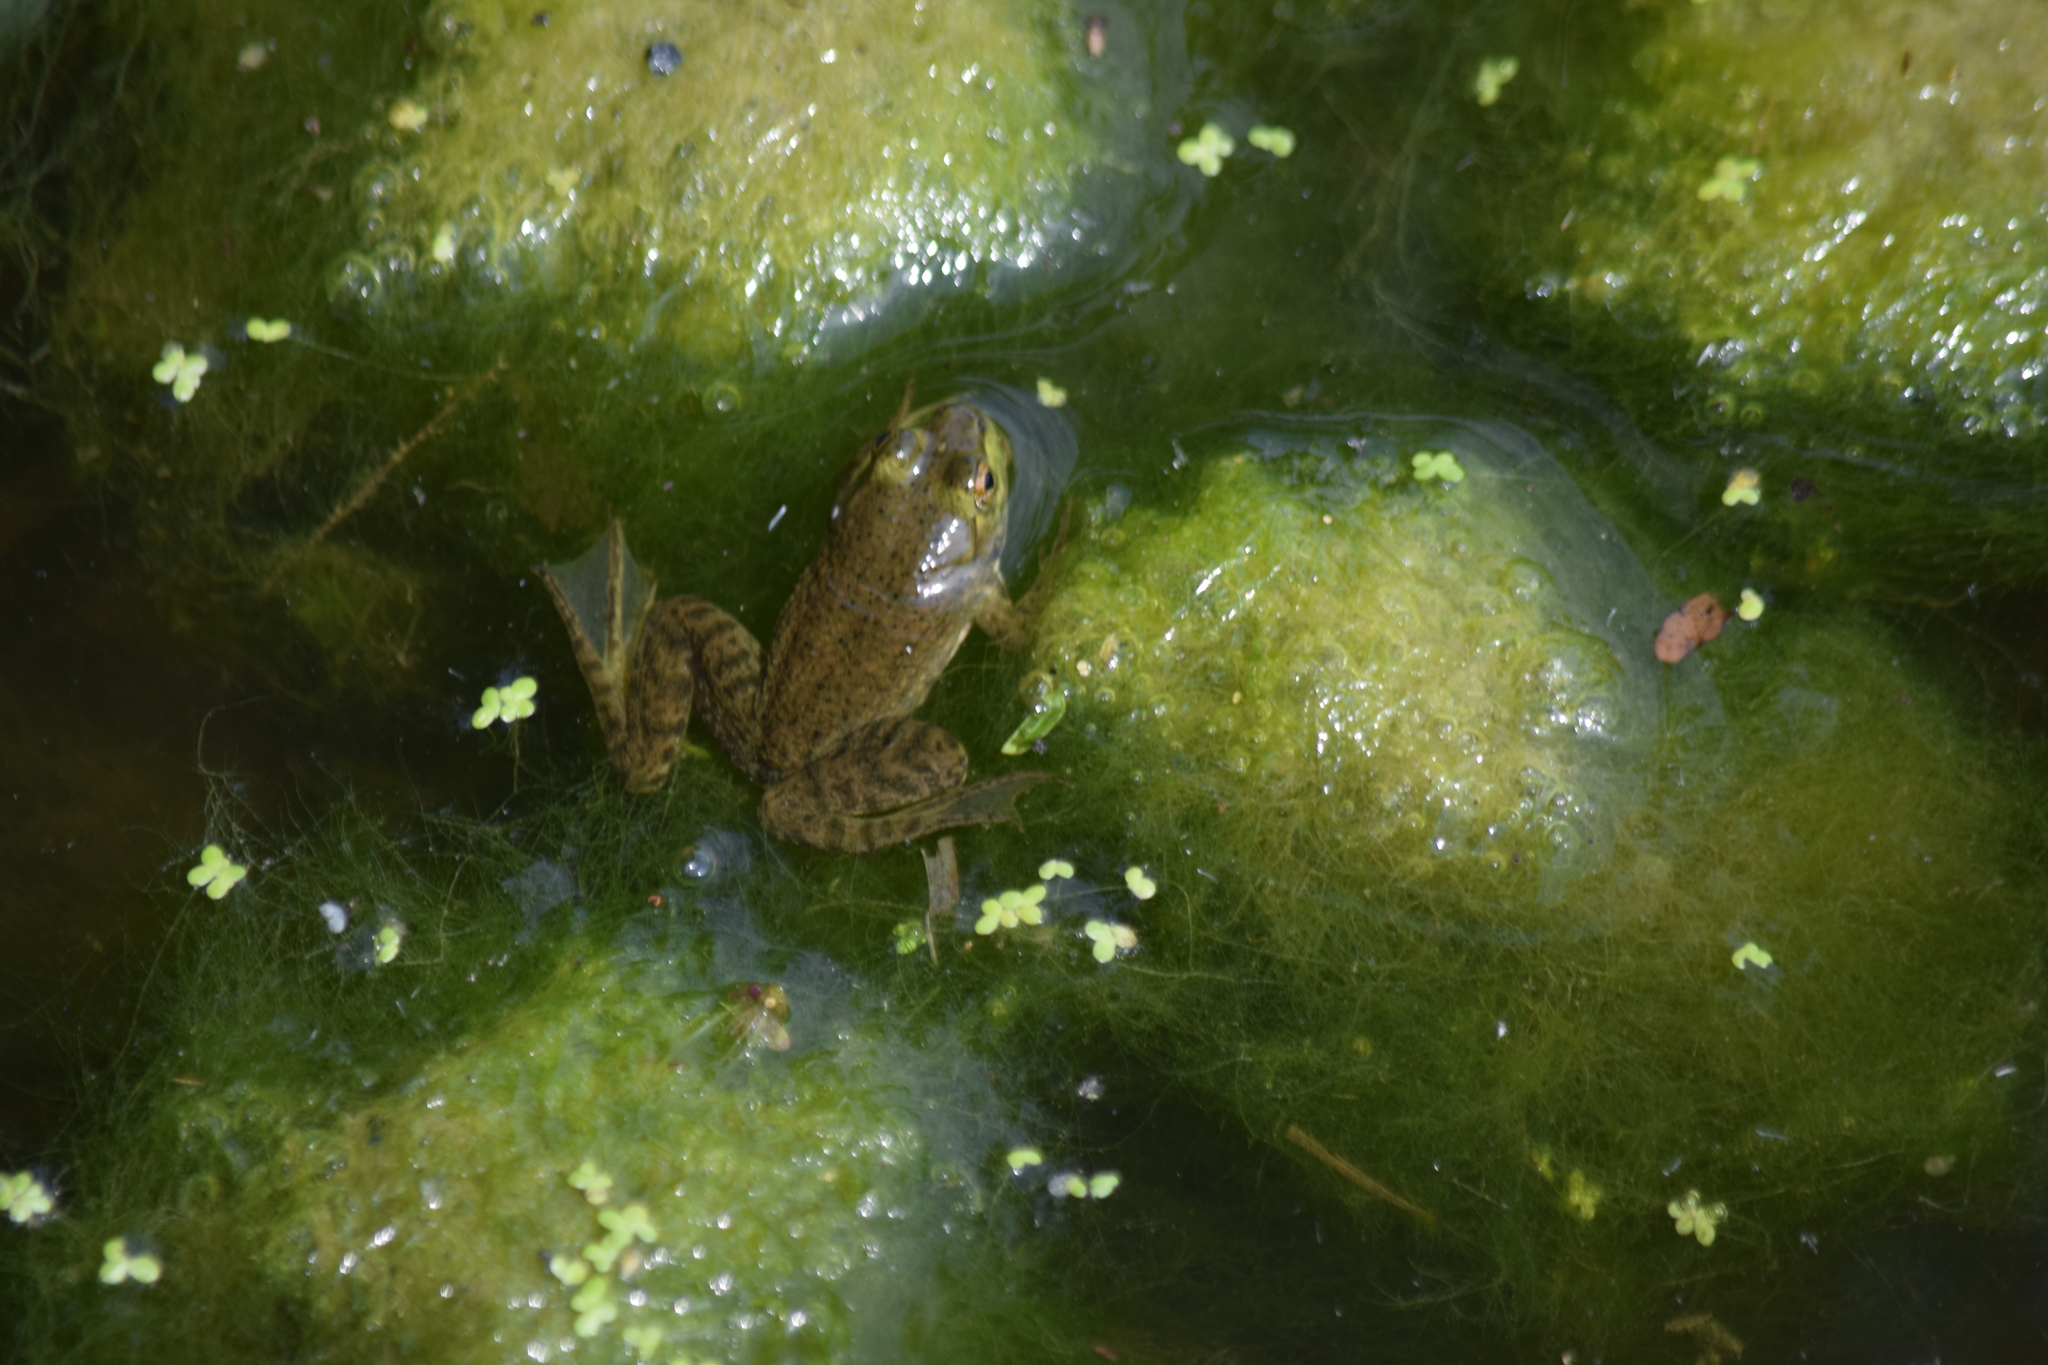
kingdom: Animalia
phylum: Chordata
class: Amphibia
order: Anura
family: Ranidae
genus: Lithobates
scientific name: Lithobates catesbeianus
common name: American bullfrog
